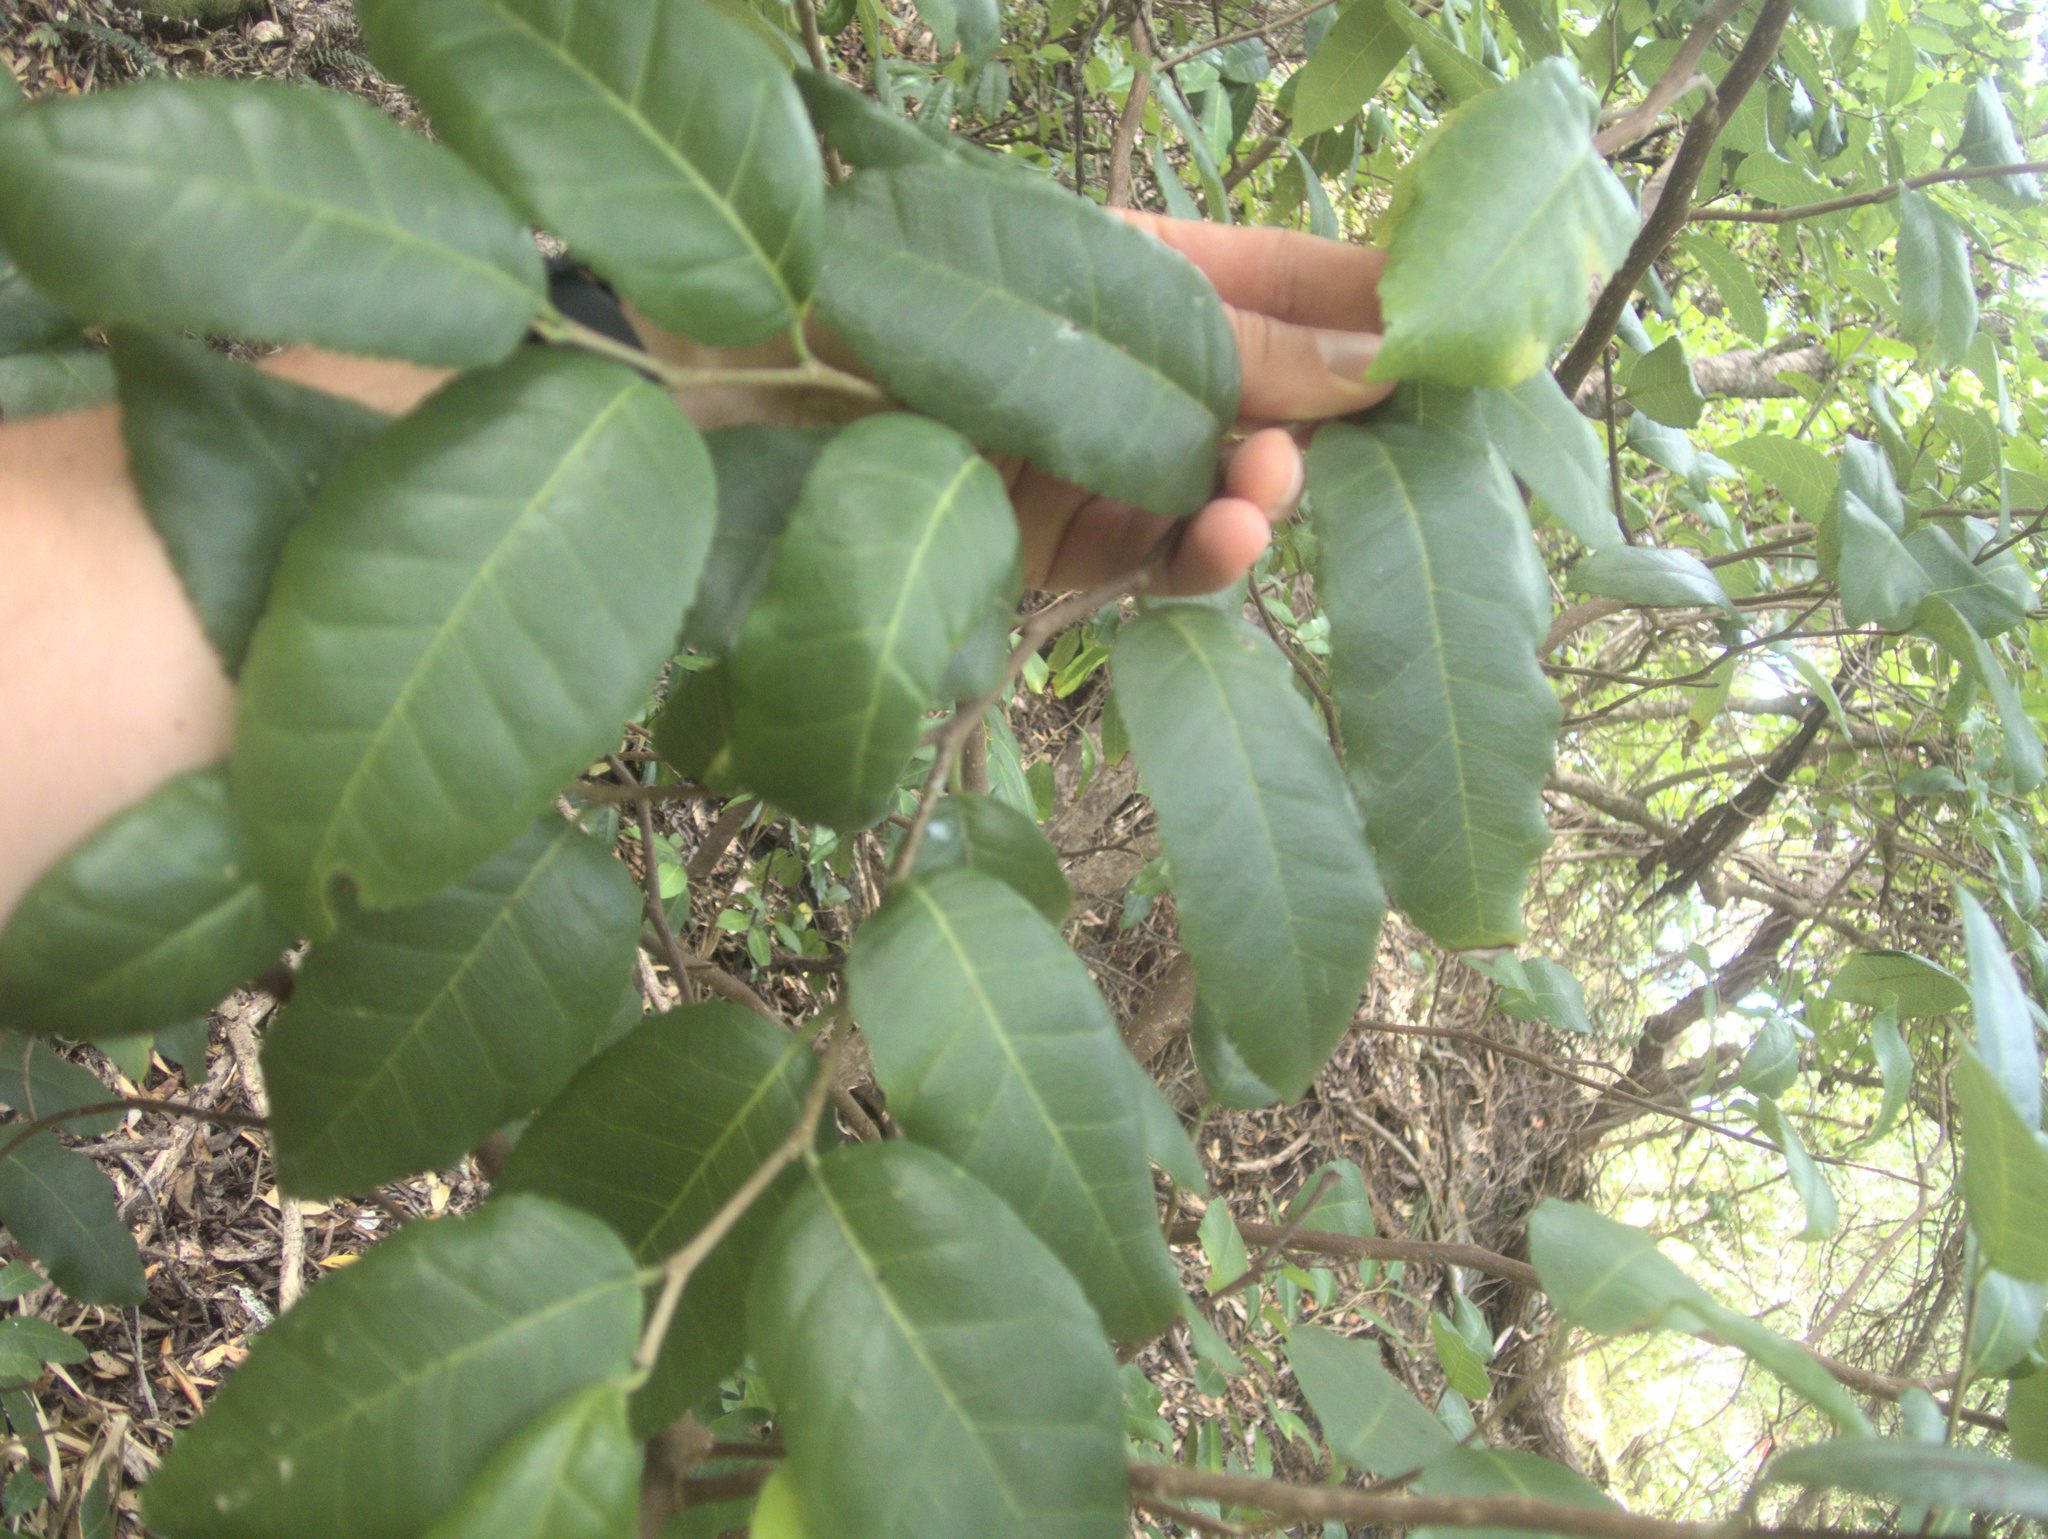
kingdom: Plantae
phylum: Tracheophyta
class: Magnoliopsida
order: Rosales
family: Moraceae
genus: Paratrophis
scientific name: Paratrophis banksii
